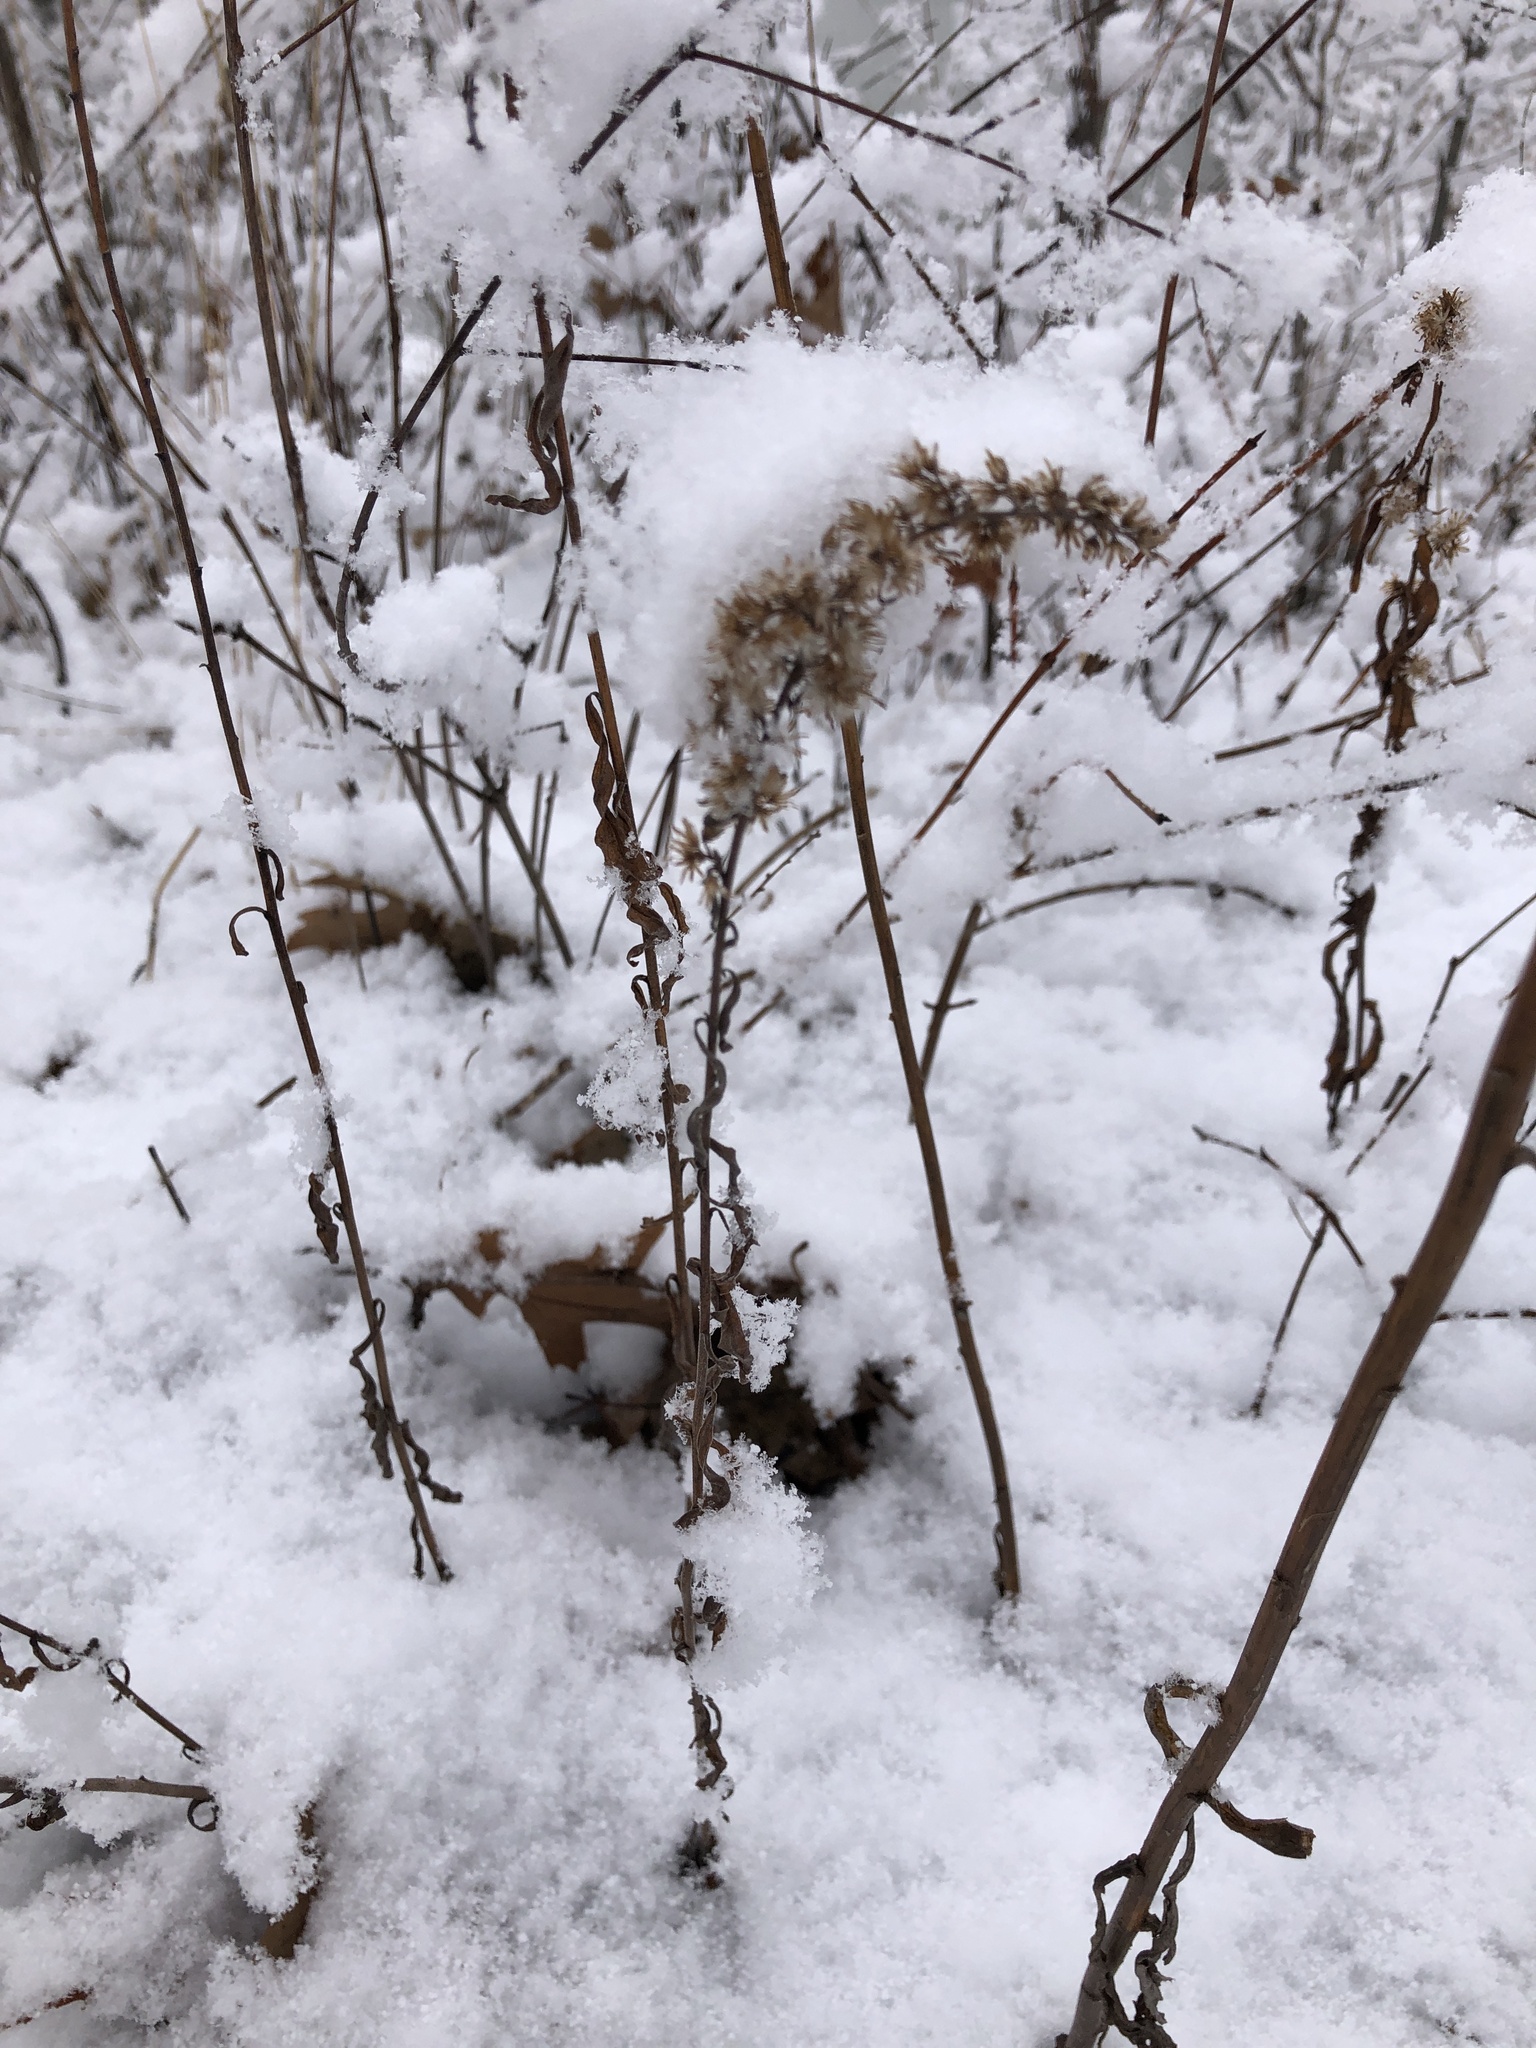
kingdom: Plantae
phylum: Tracheophyta
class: Magnoliopsida
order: Asterales
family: Asteraceae
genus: Solidago
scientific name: Solidago nemoralis
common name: Grey goldenrod
